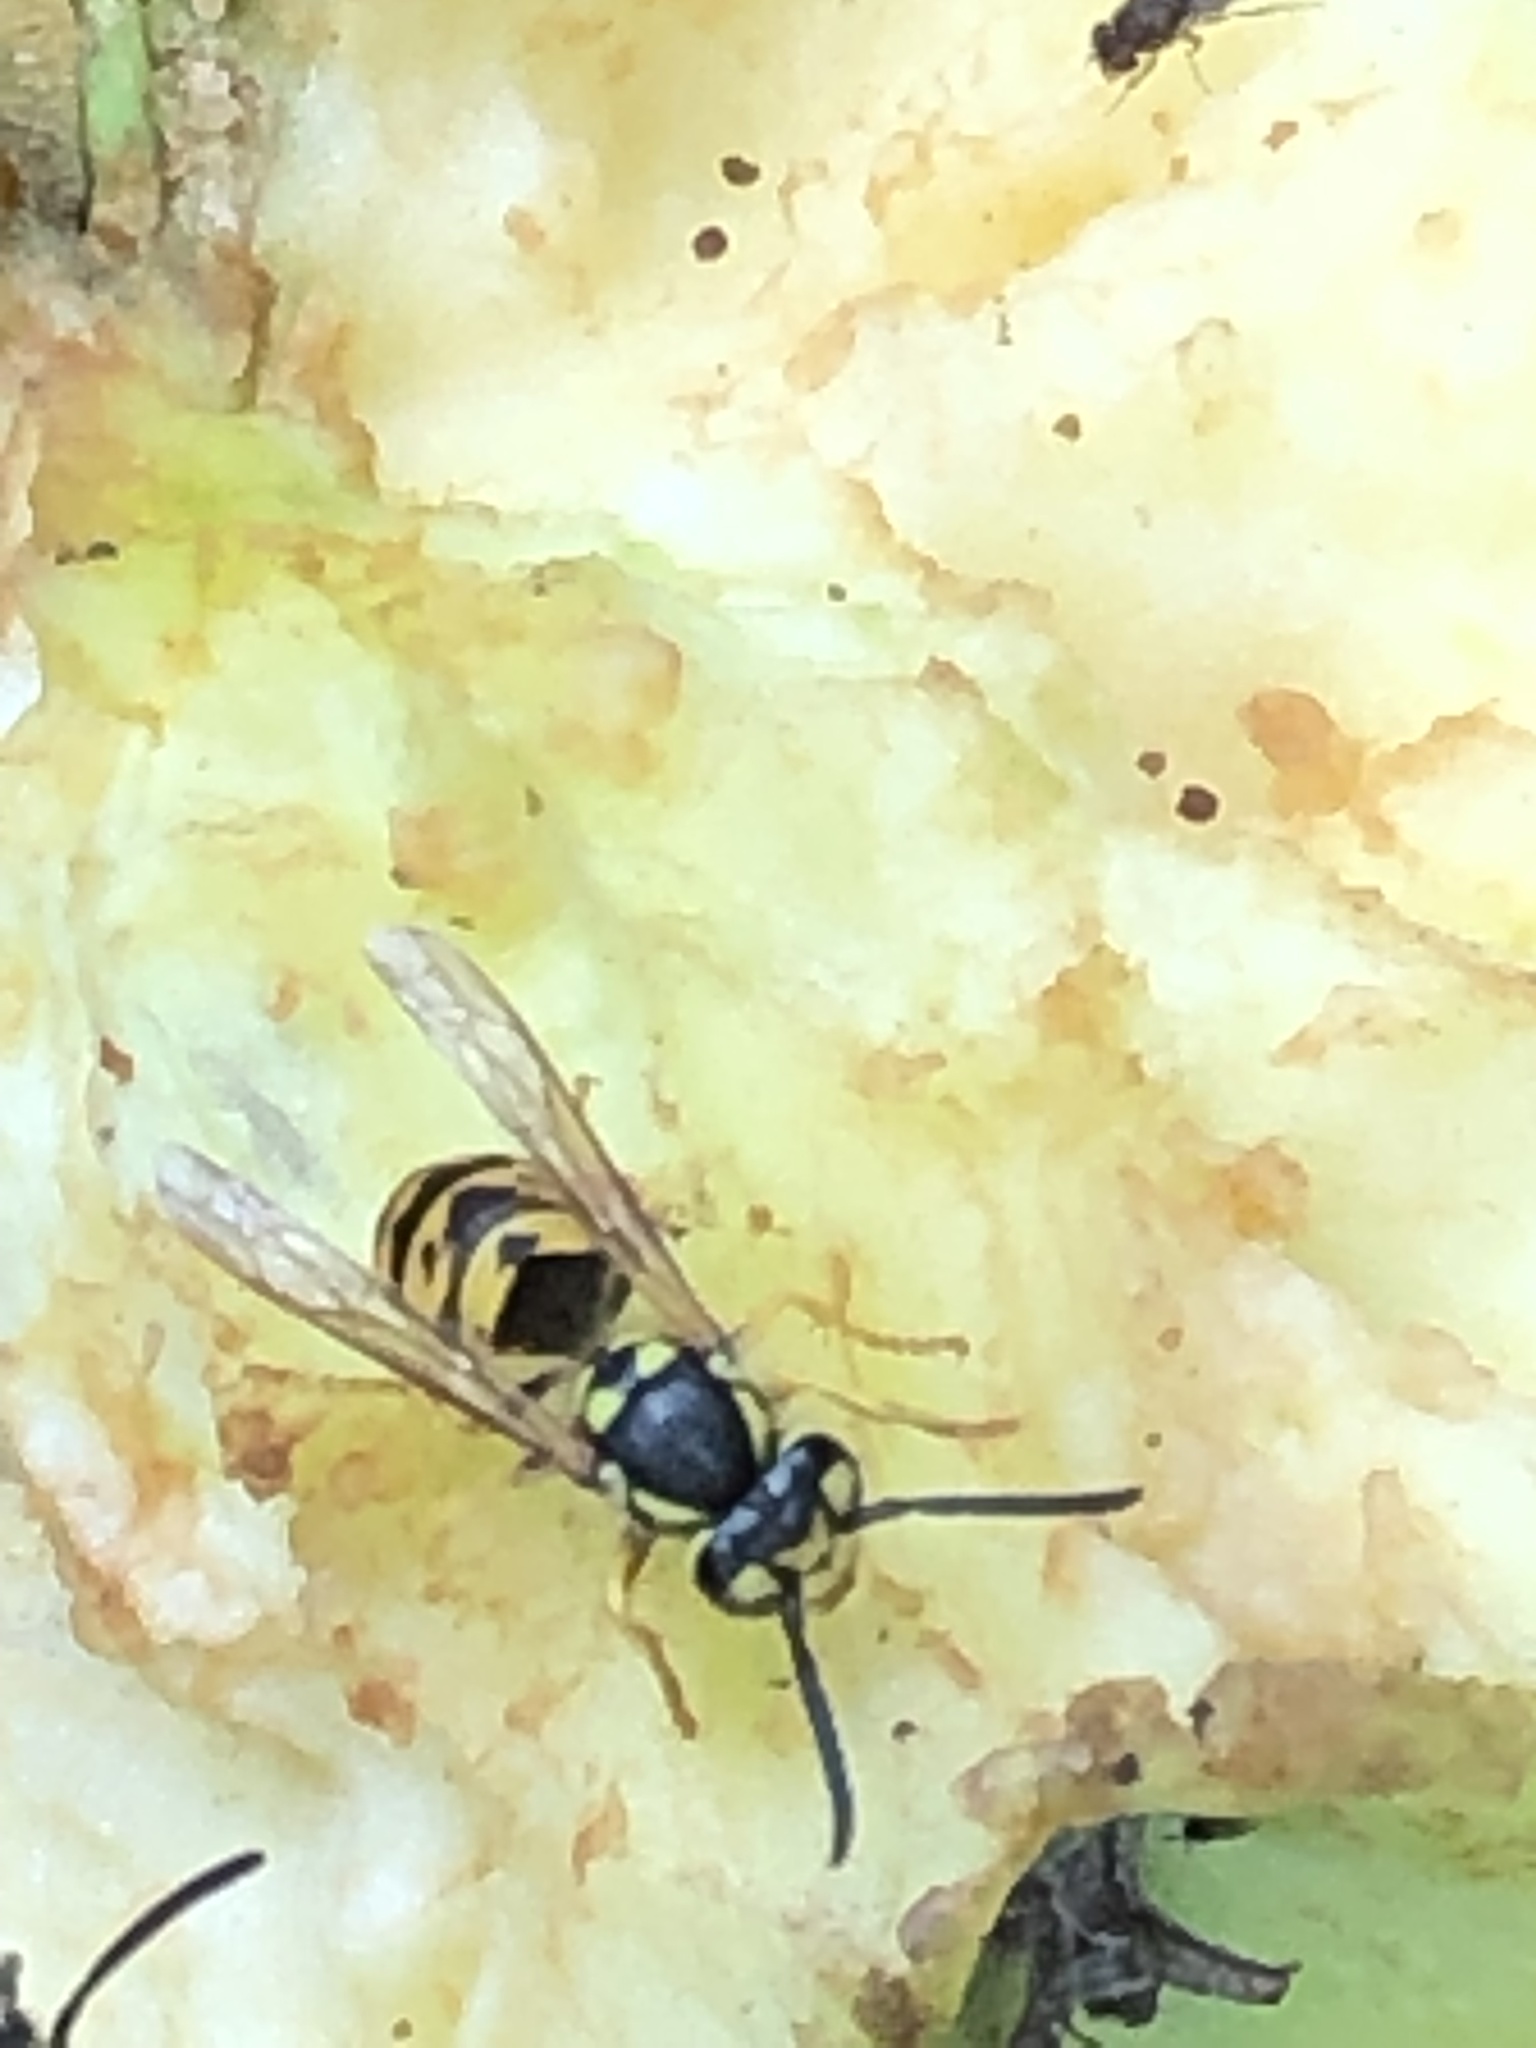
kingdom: Animalia
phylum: Arthropoda
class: Insecta
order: Hymenoptera
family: Vespidae
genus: Vespula
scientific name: Vespula germanica
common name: German wasp
